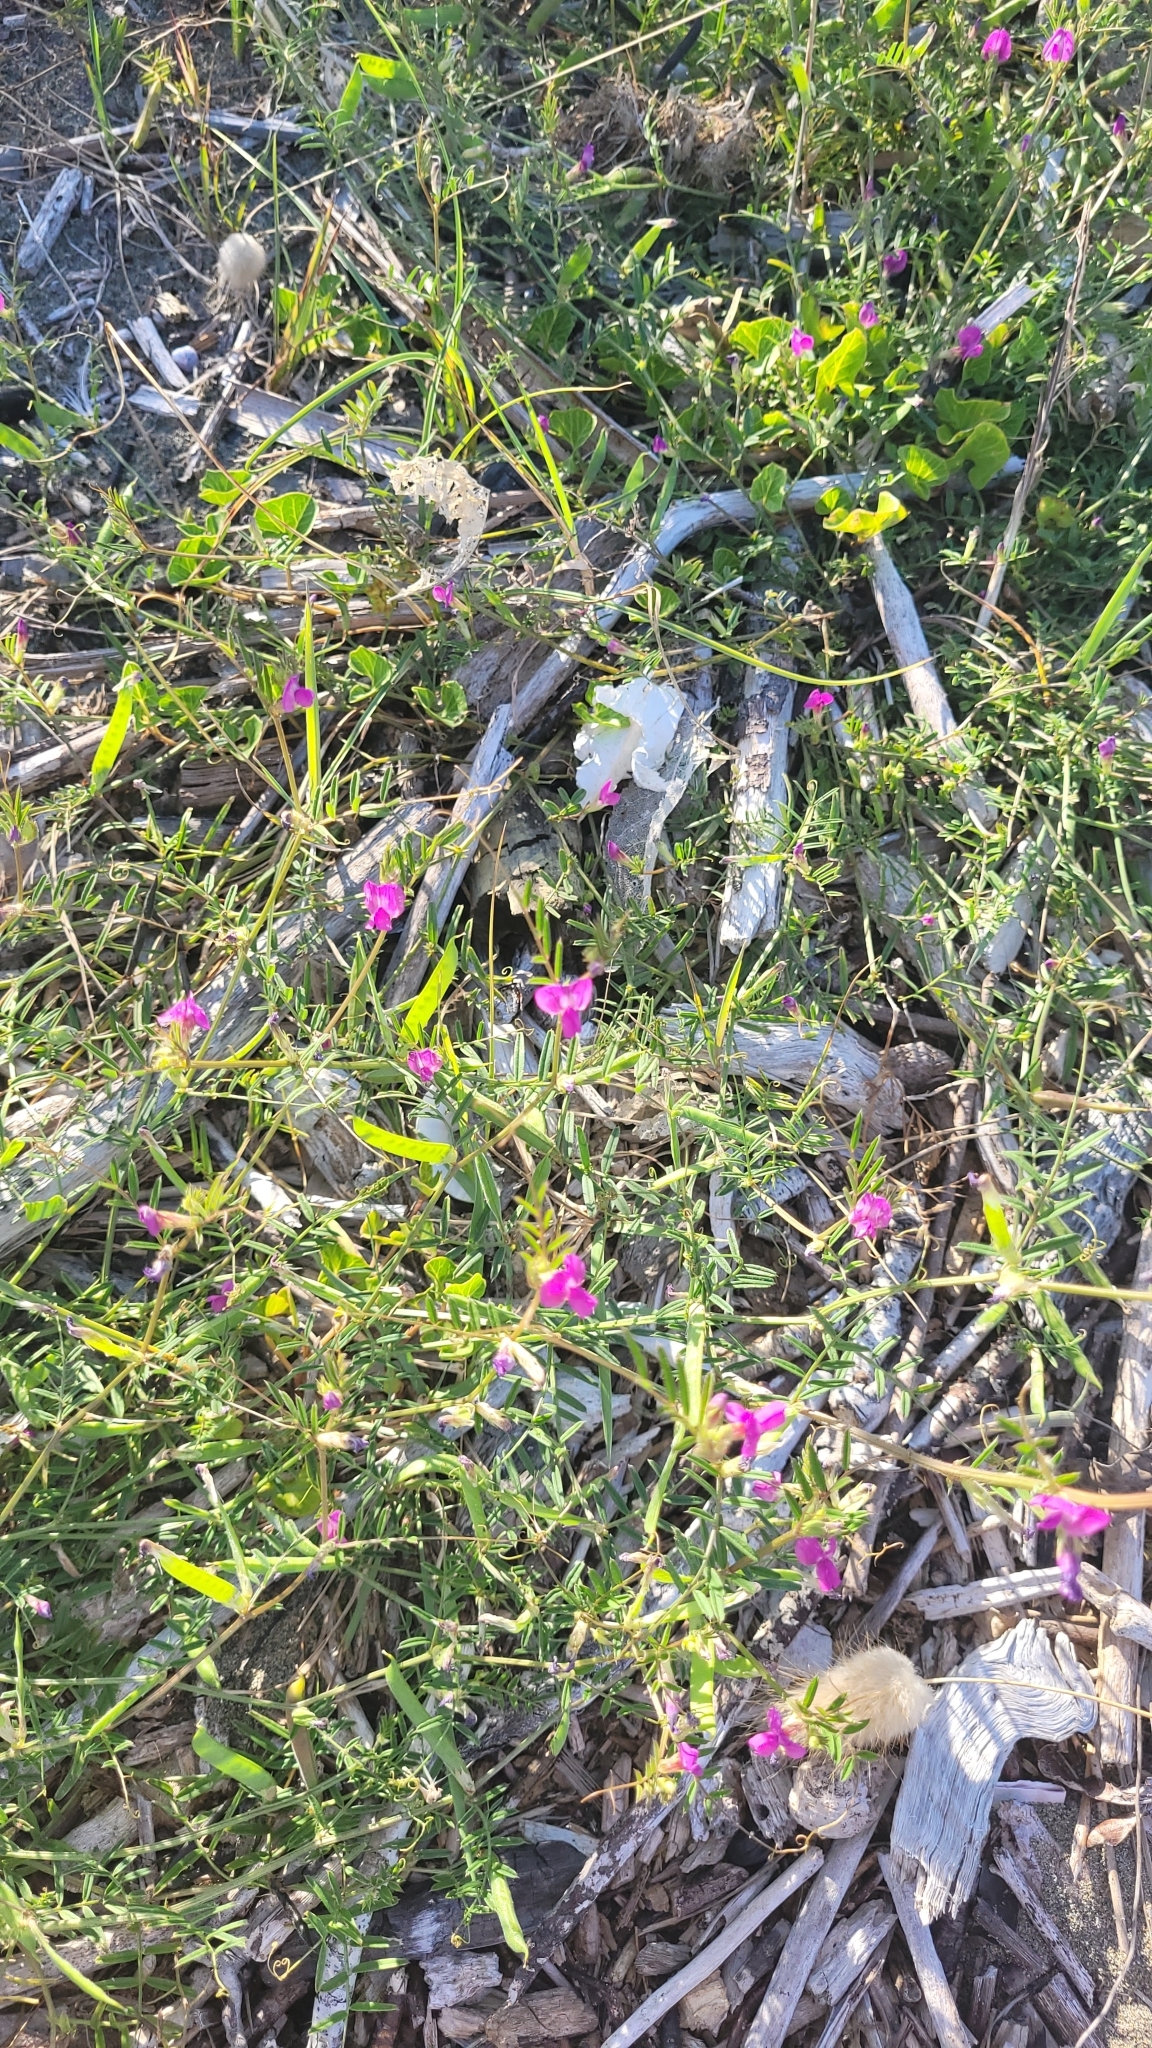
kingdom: Plantae
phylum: Tracheophyta
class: Magnoliopsida
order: Fabales
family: Fabaceae
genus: Vicia
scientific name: Vicia sativa
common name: Garden vetch
